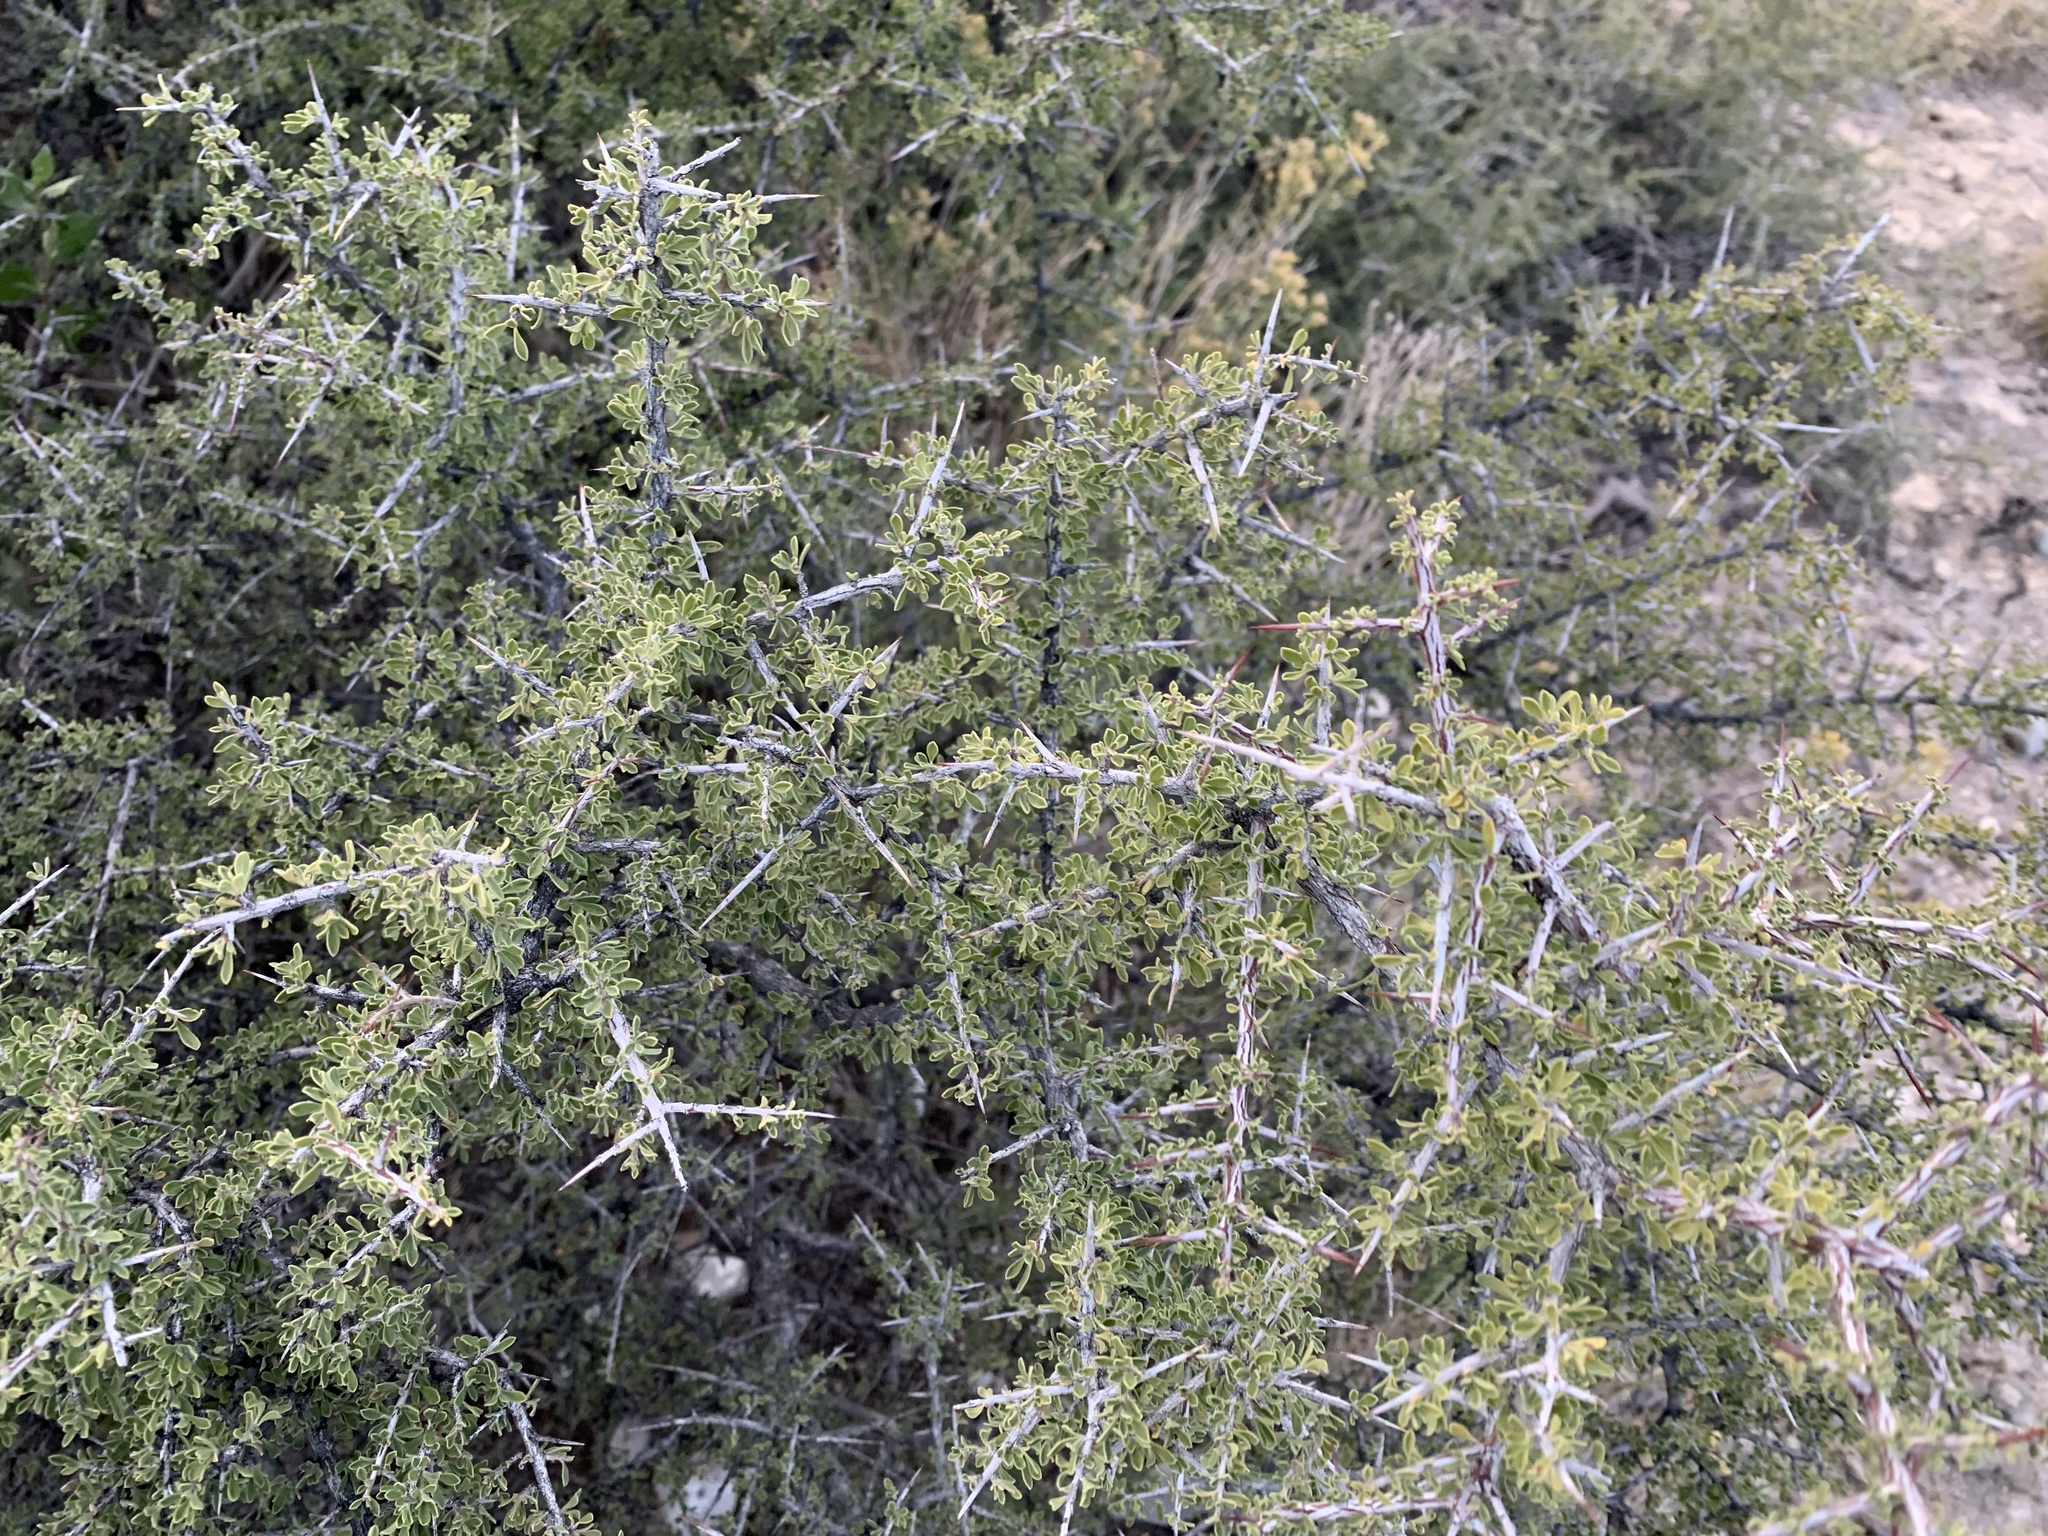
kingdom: Plantae
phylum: Tracheophyta
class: Magnoliopsida
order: Rosales
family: Rhamnaceae
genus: Condalia
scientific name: Condalia warnockii
